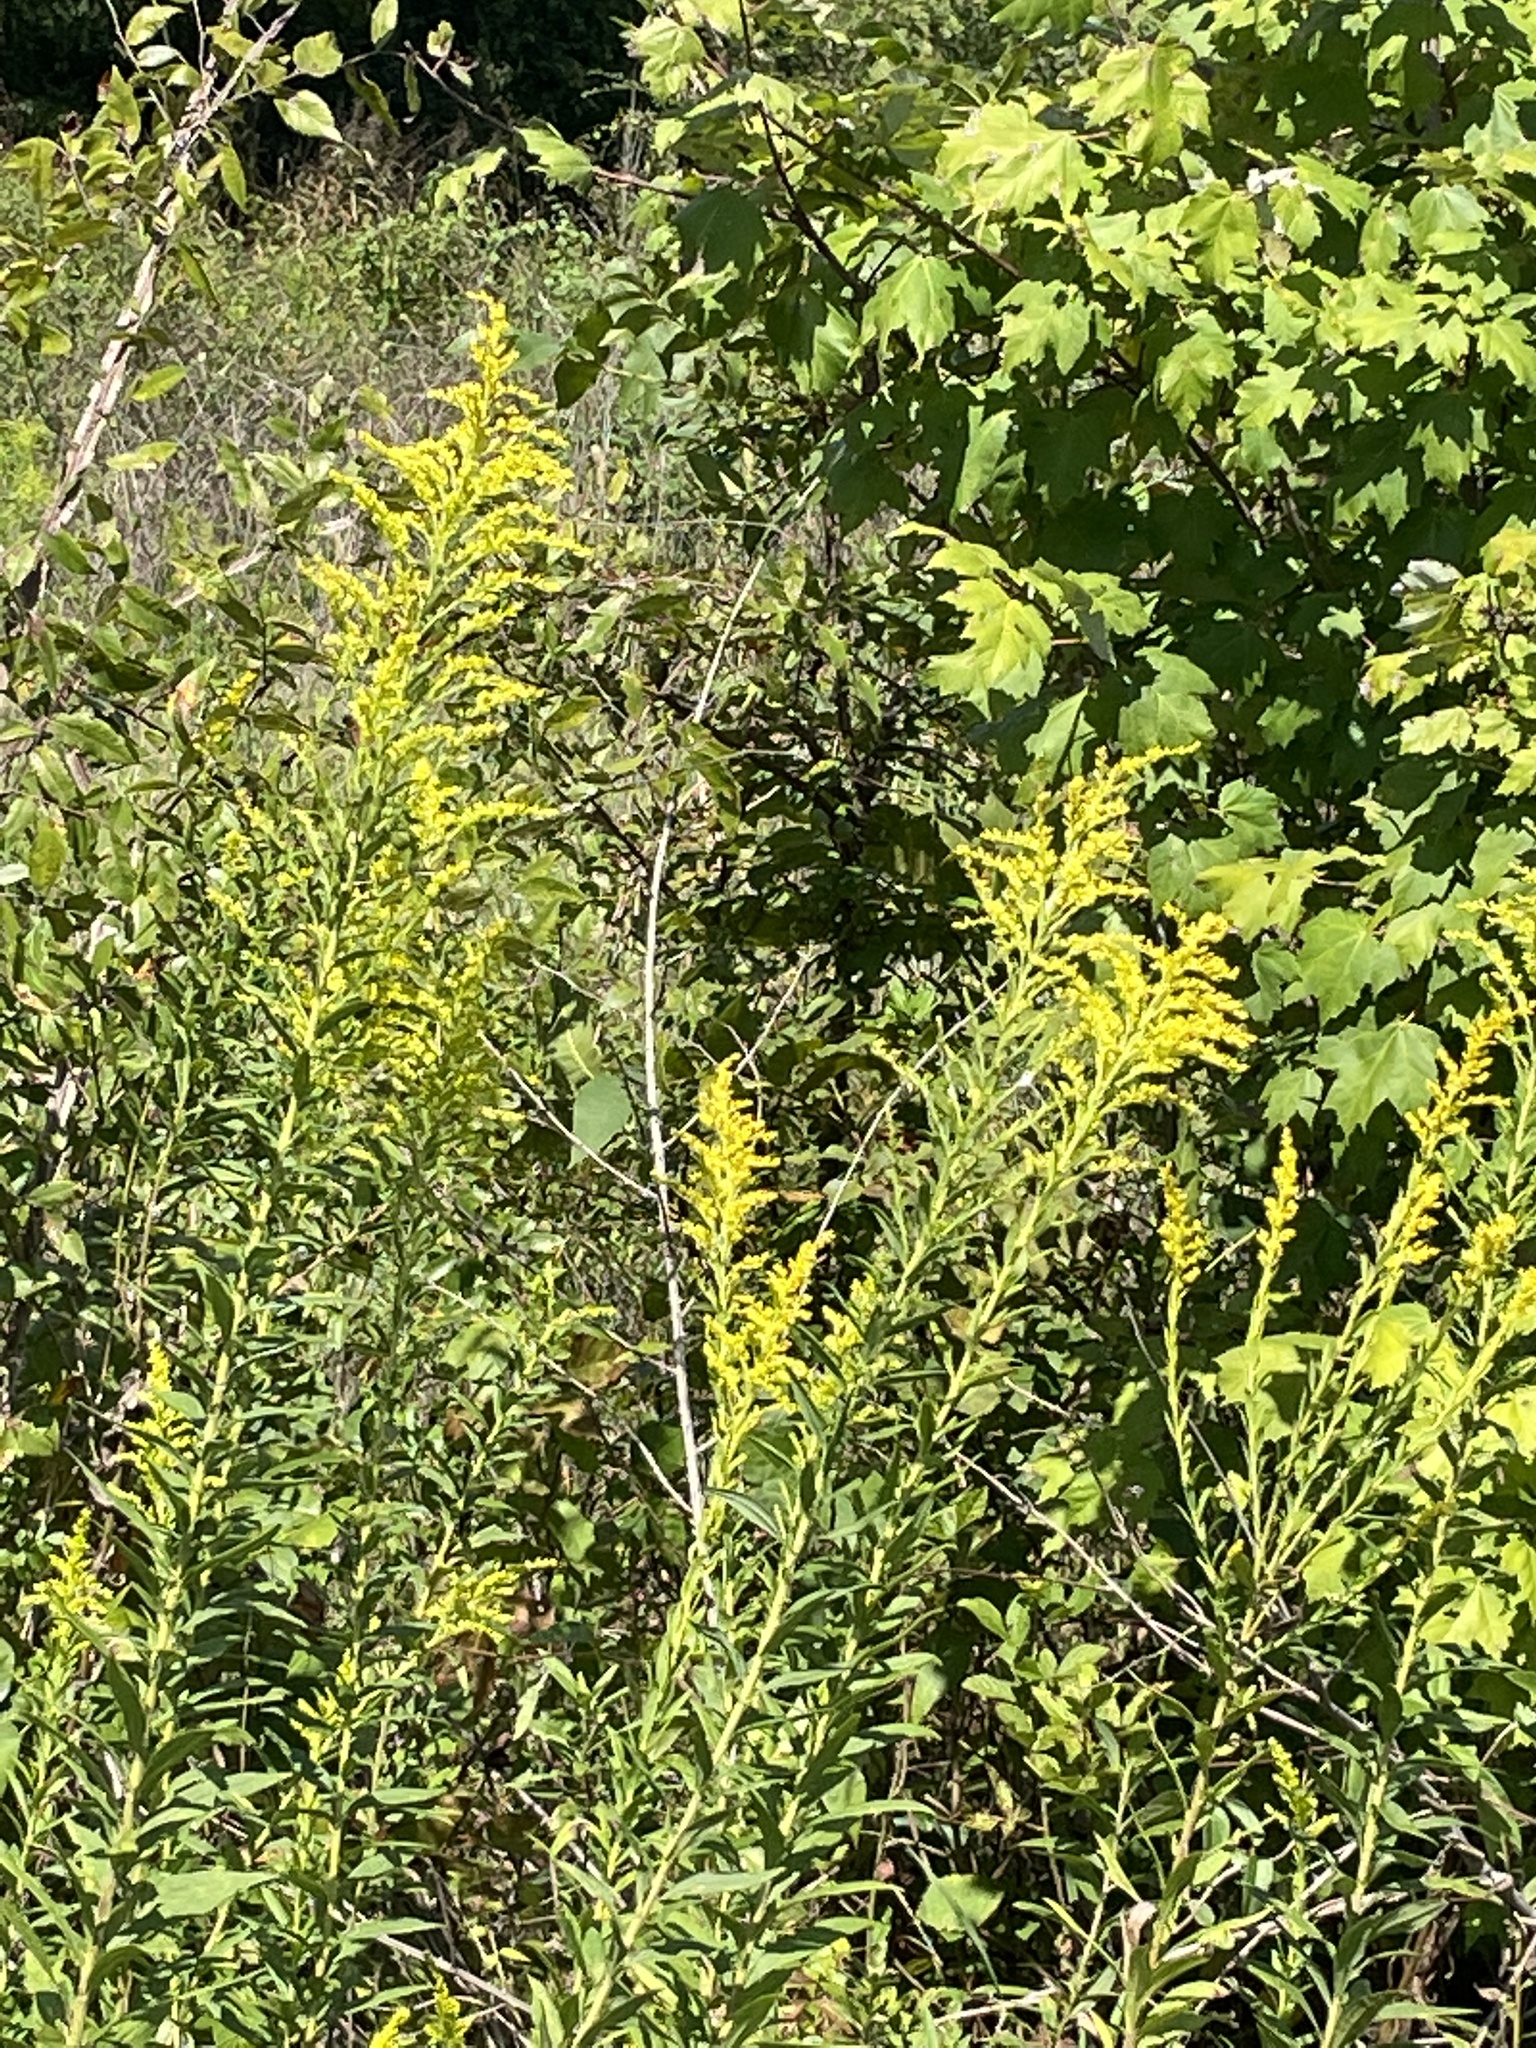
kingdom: Plantae
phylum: Tracheophyta
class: Magnoliopsida
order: Asterales
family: Asteraceae
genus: Solidago
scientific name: Solidago altissima
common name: Late goldenrod
